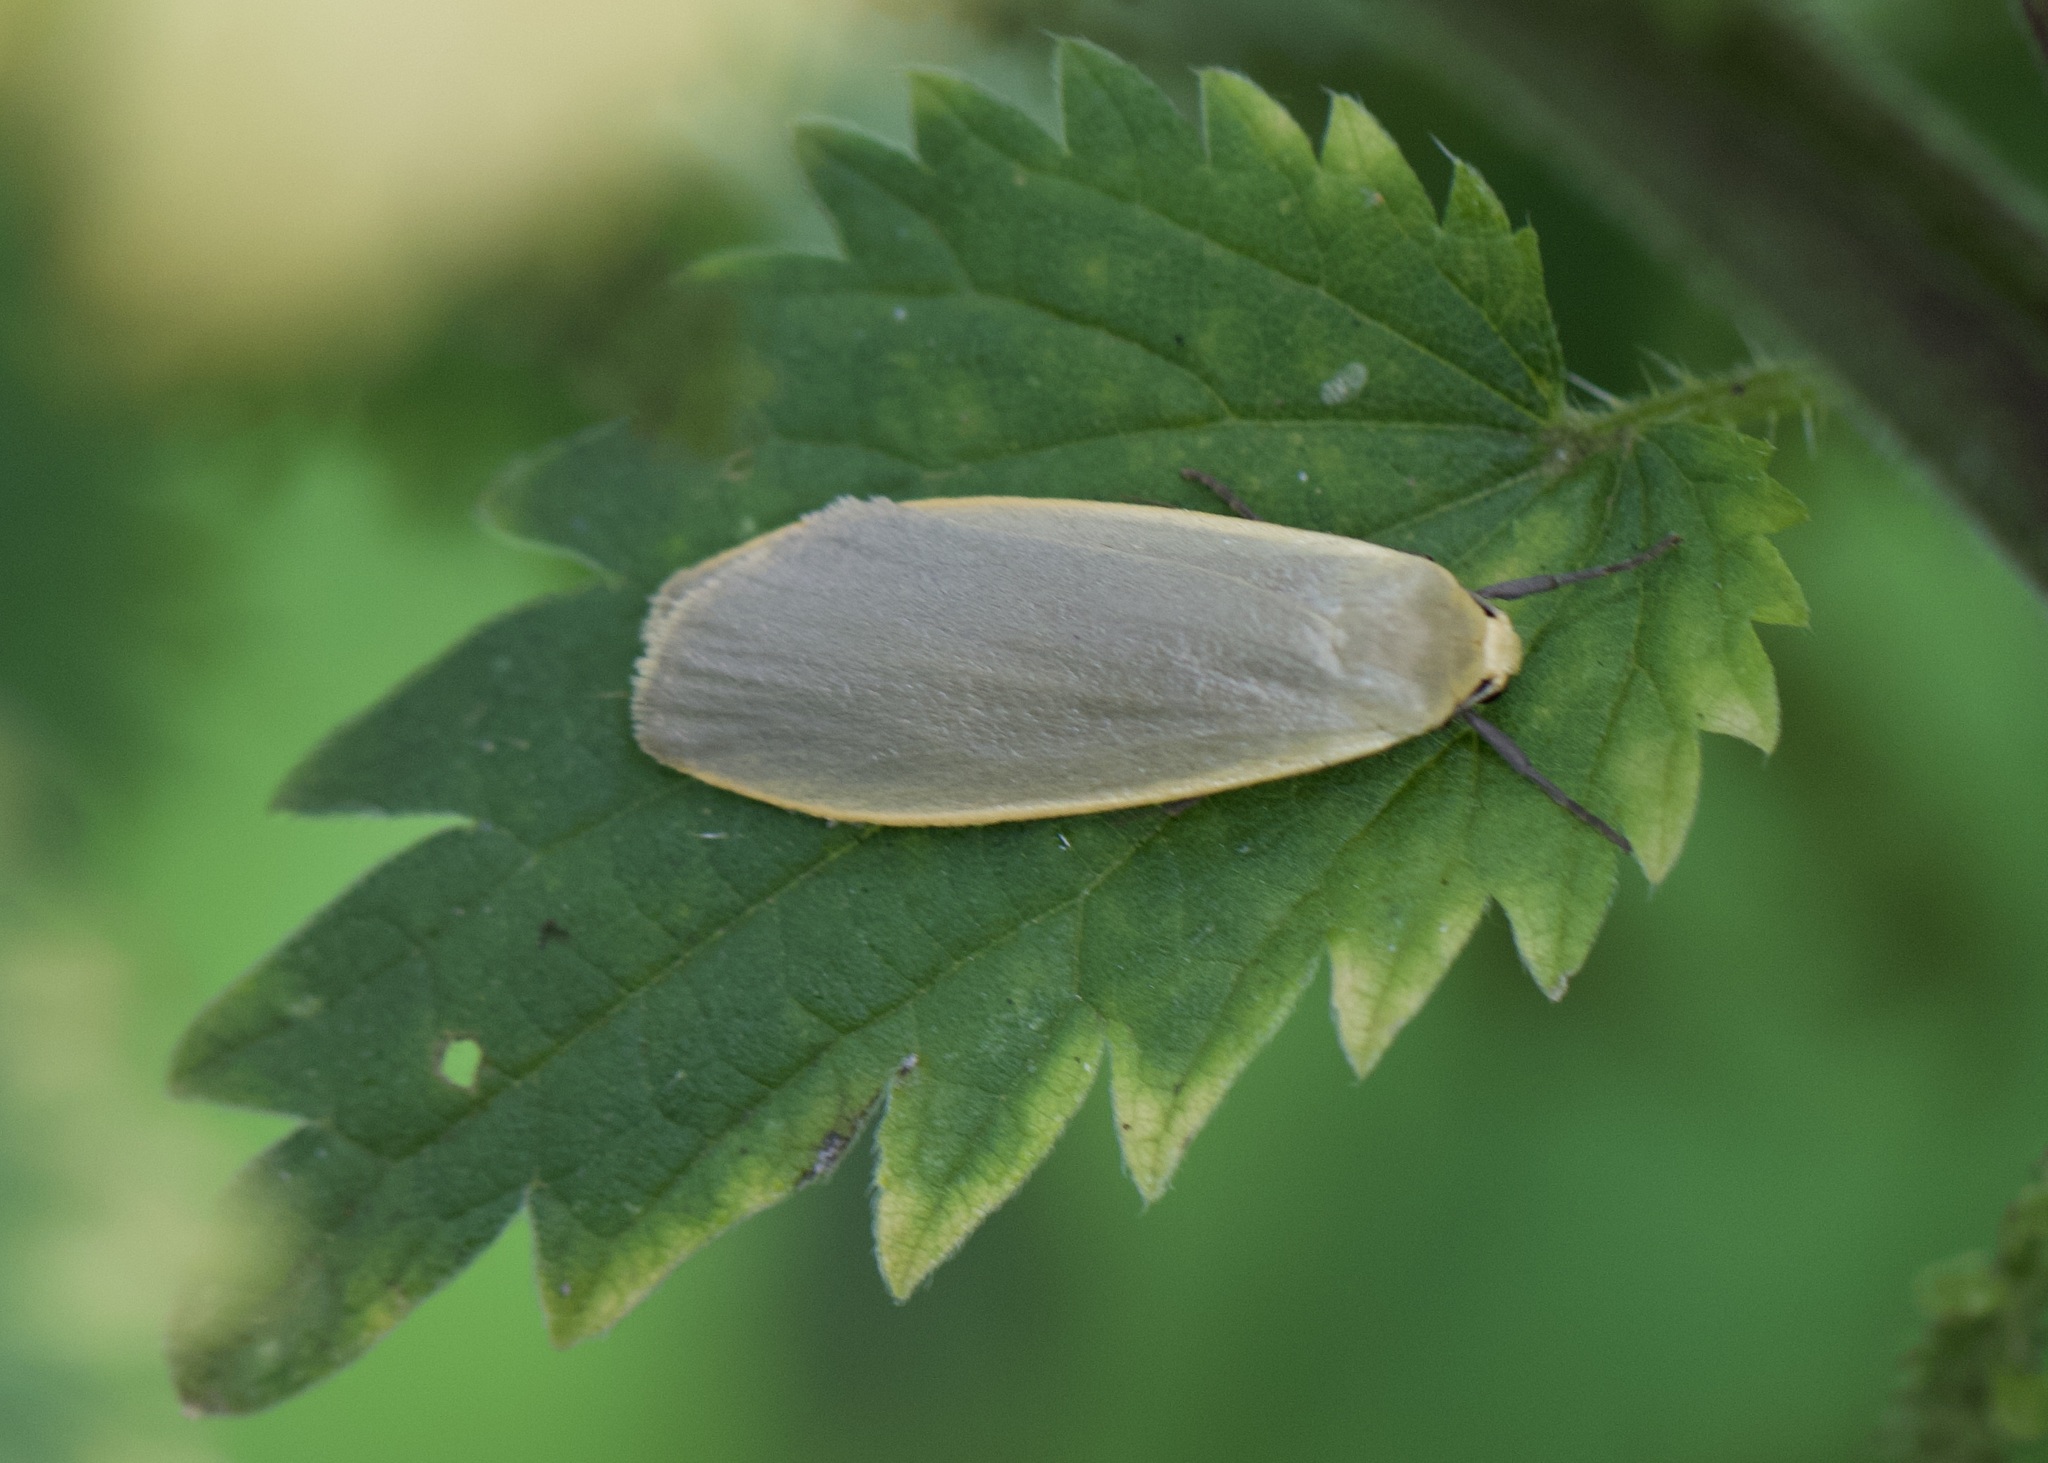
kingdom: Animalia
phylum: Arthropoda
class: Insecta
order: Lepidoptera
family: Erebidae
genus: Collita
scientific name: Collita griseola
